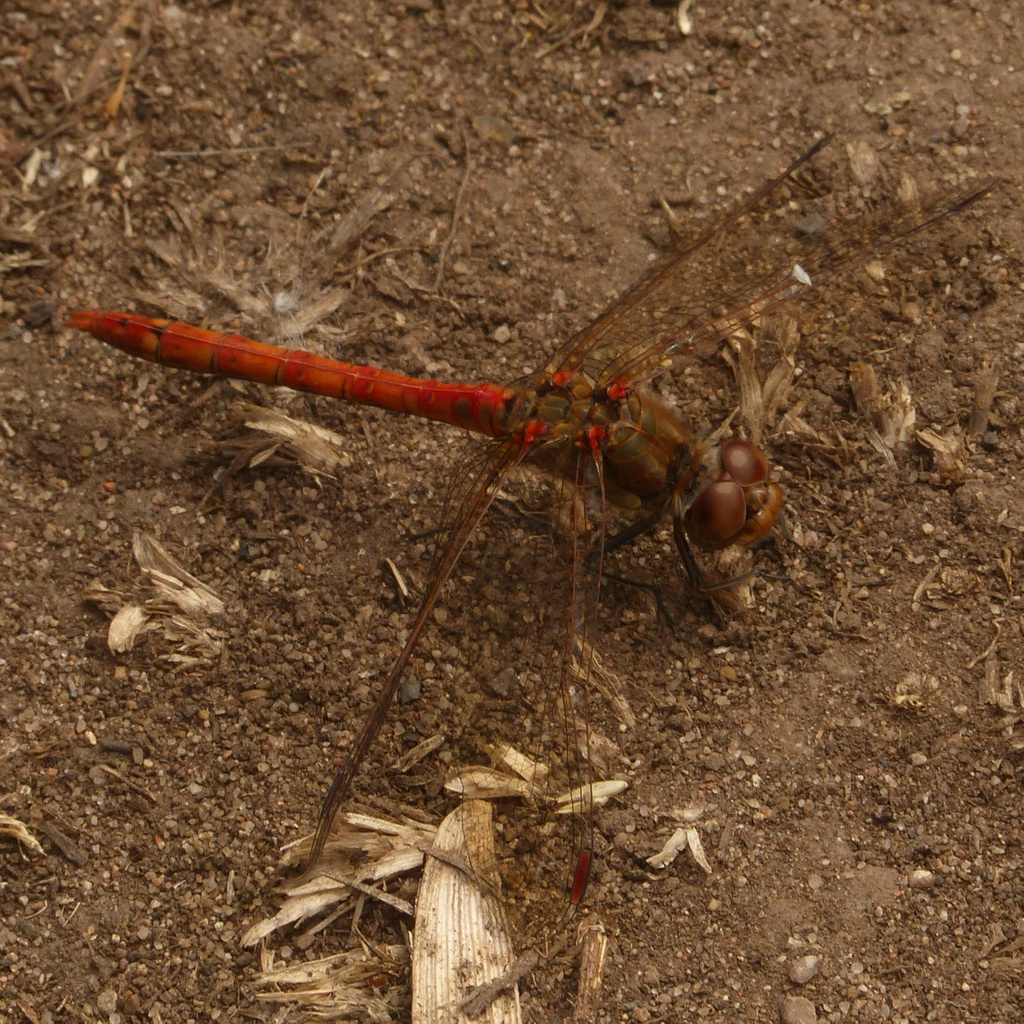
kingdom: Animalia
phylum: Arthropoda
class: Insecta
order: Odonata
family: Libellulidae
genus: Sympetrum
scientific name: Sympetrum striolatum
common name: Common darter
